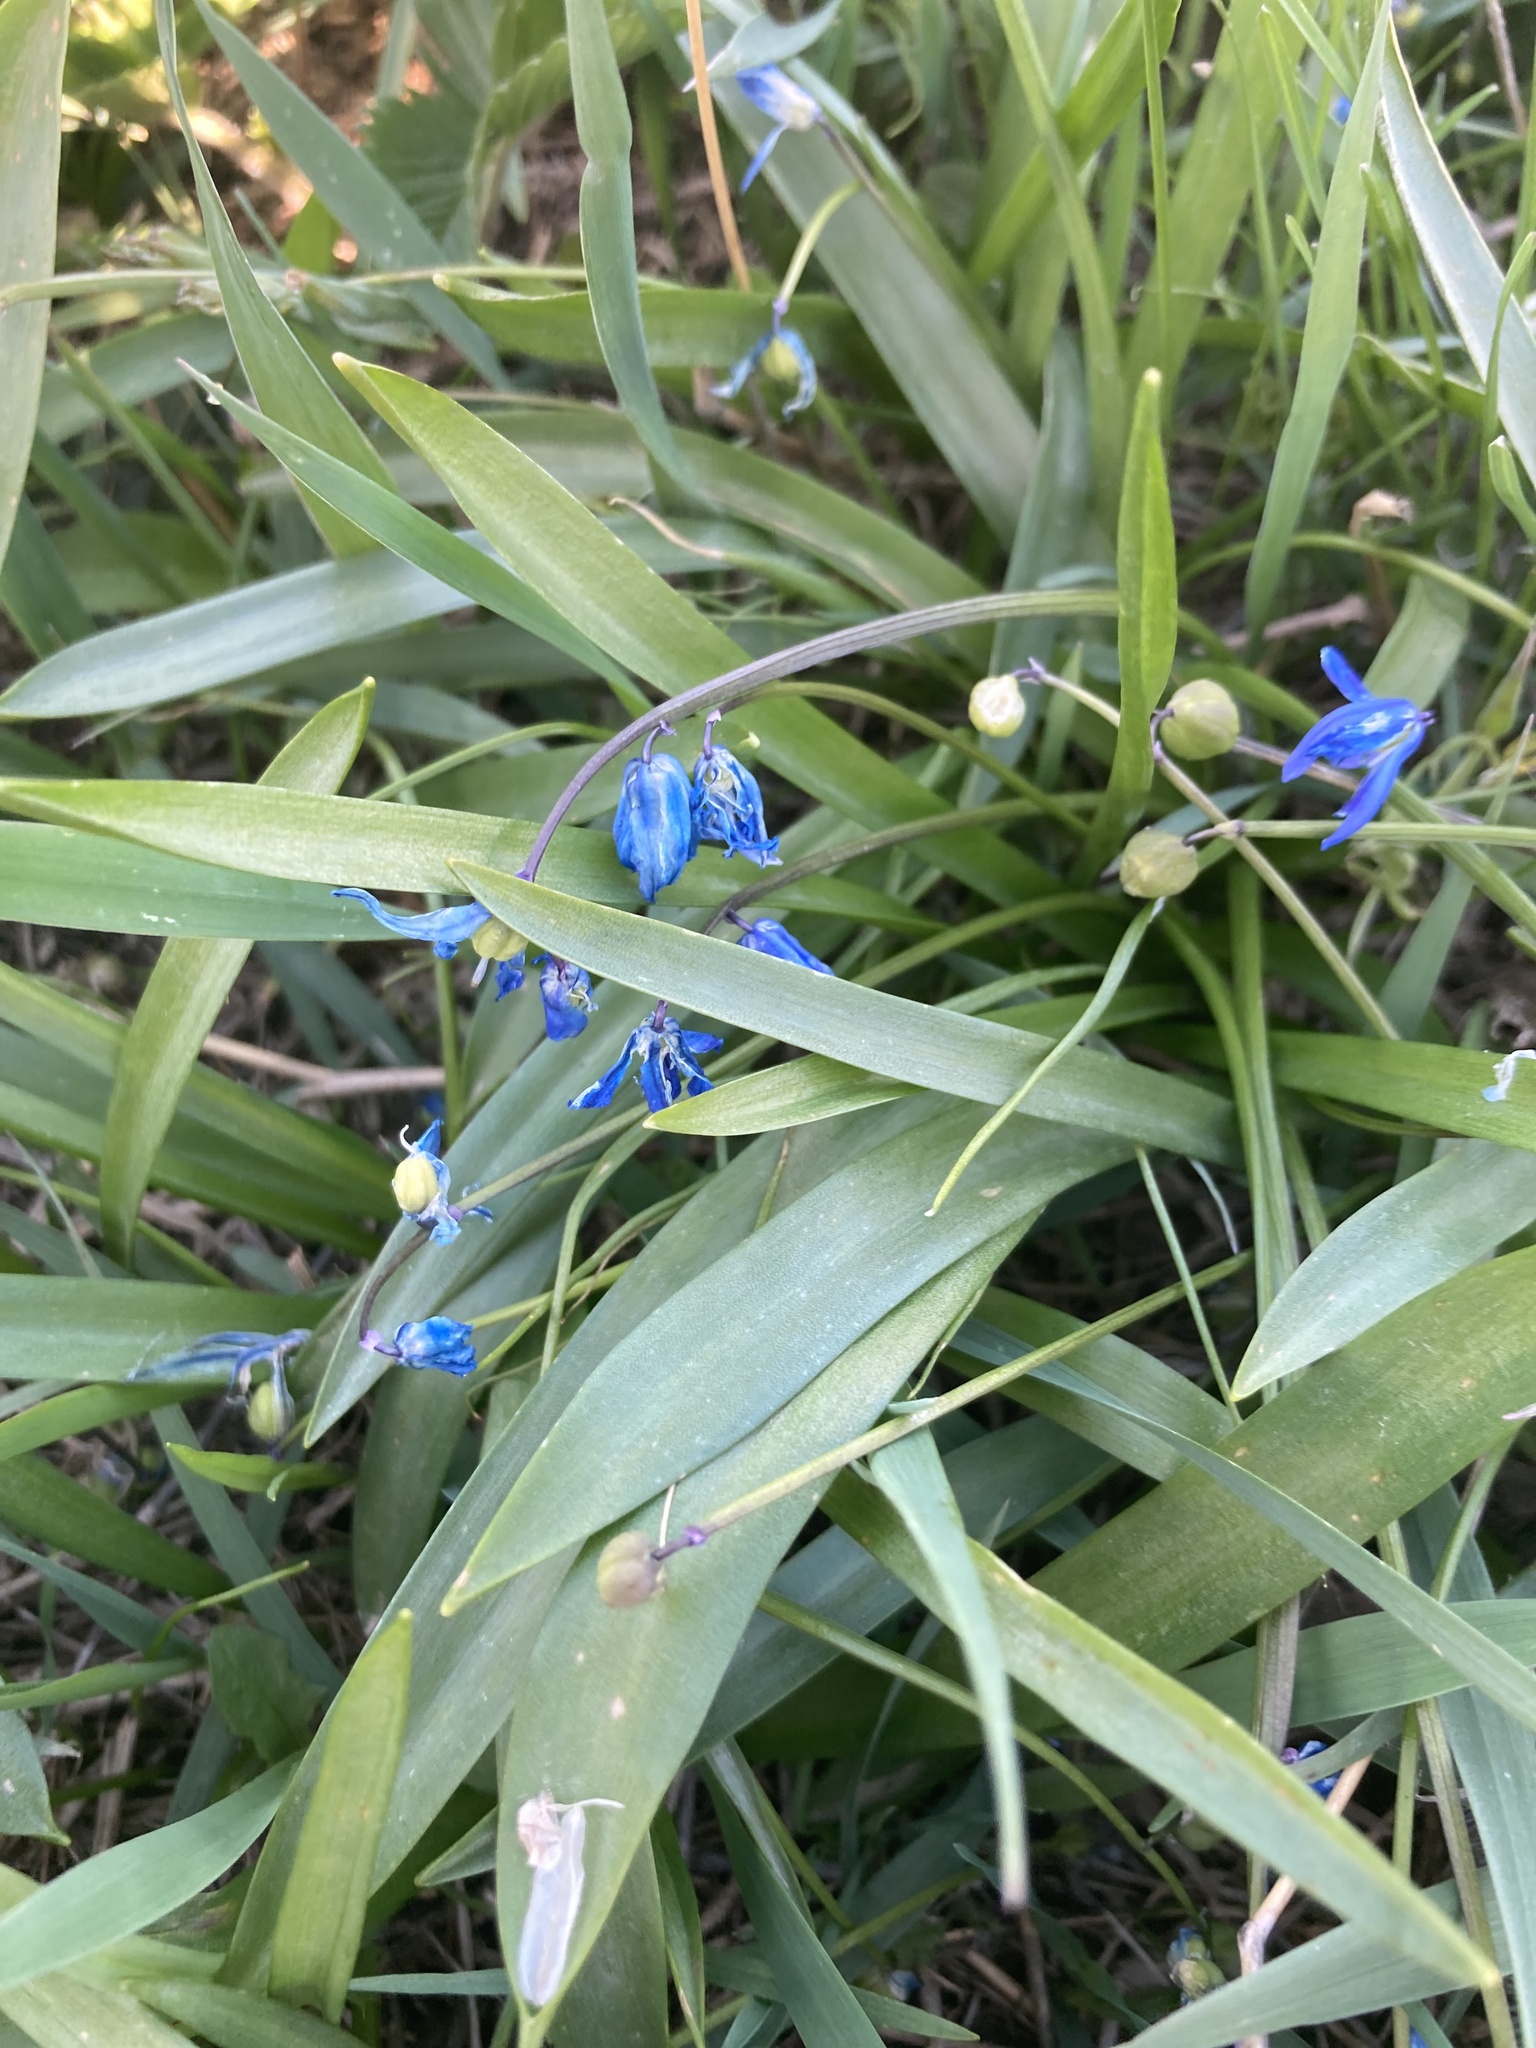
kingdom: Plantae
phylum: Tracheophyta
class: Liliopsida
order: Asparagales
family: Asparagaceae
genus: Scilla
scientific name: Scilla siberica
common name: Siberian squill
